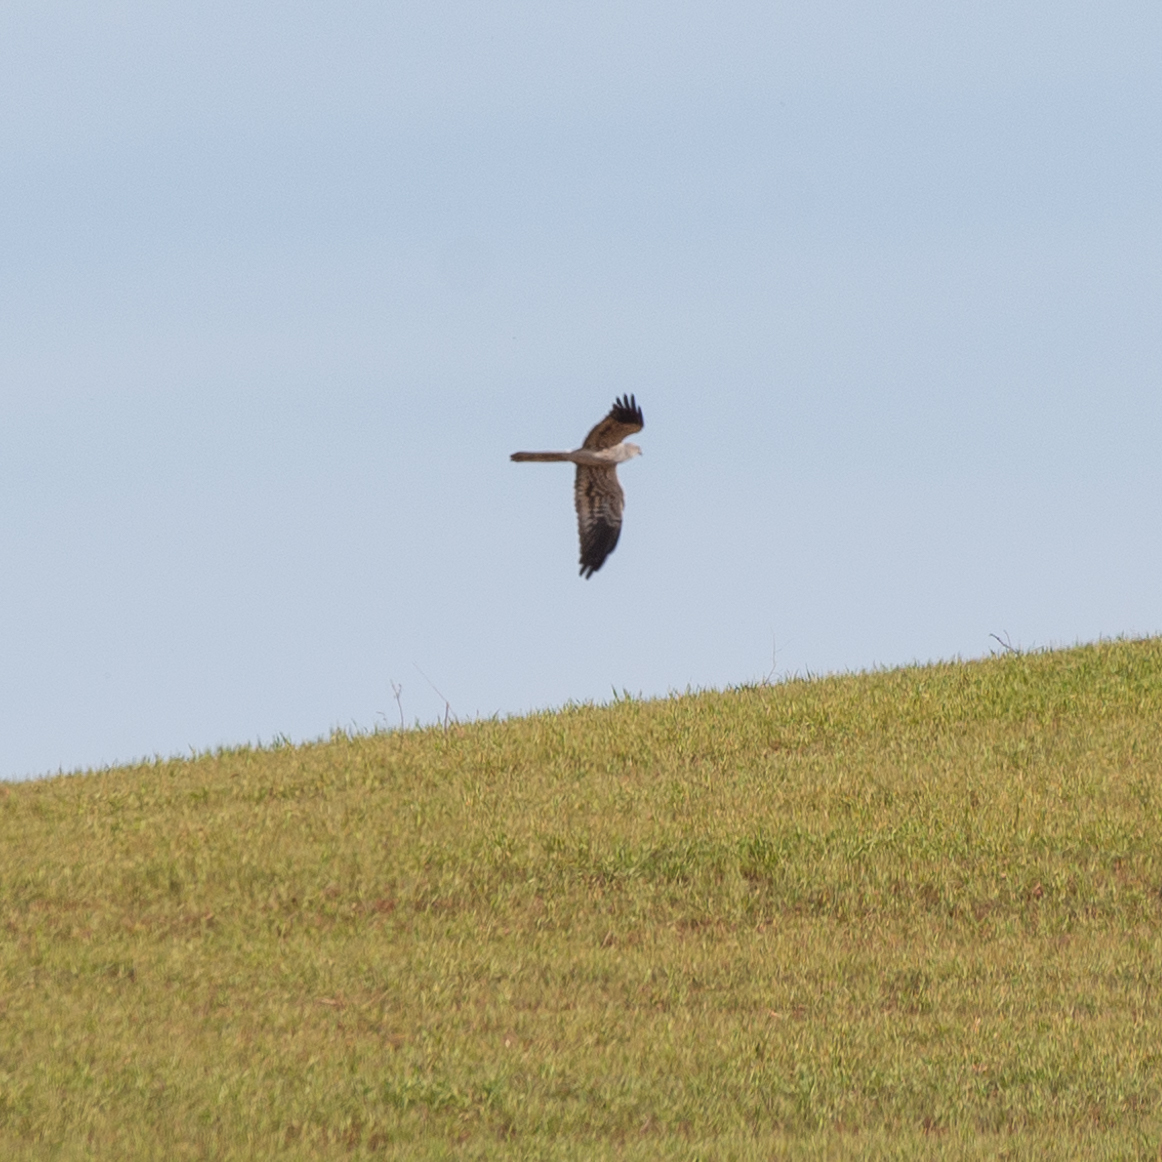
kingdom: Animalia
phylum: Chordata
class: Aves
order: Accipitriformes
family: Accipitridae
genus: Circus
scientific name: Circus pygargus
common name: Montagu's harrier
